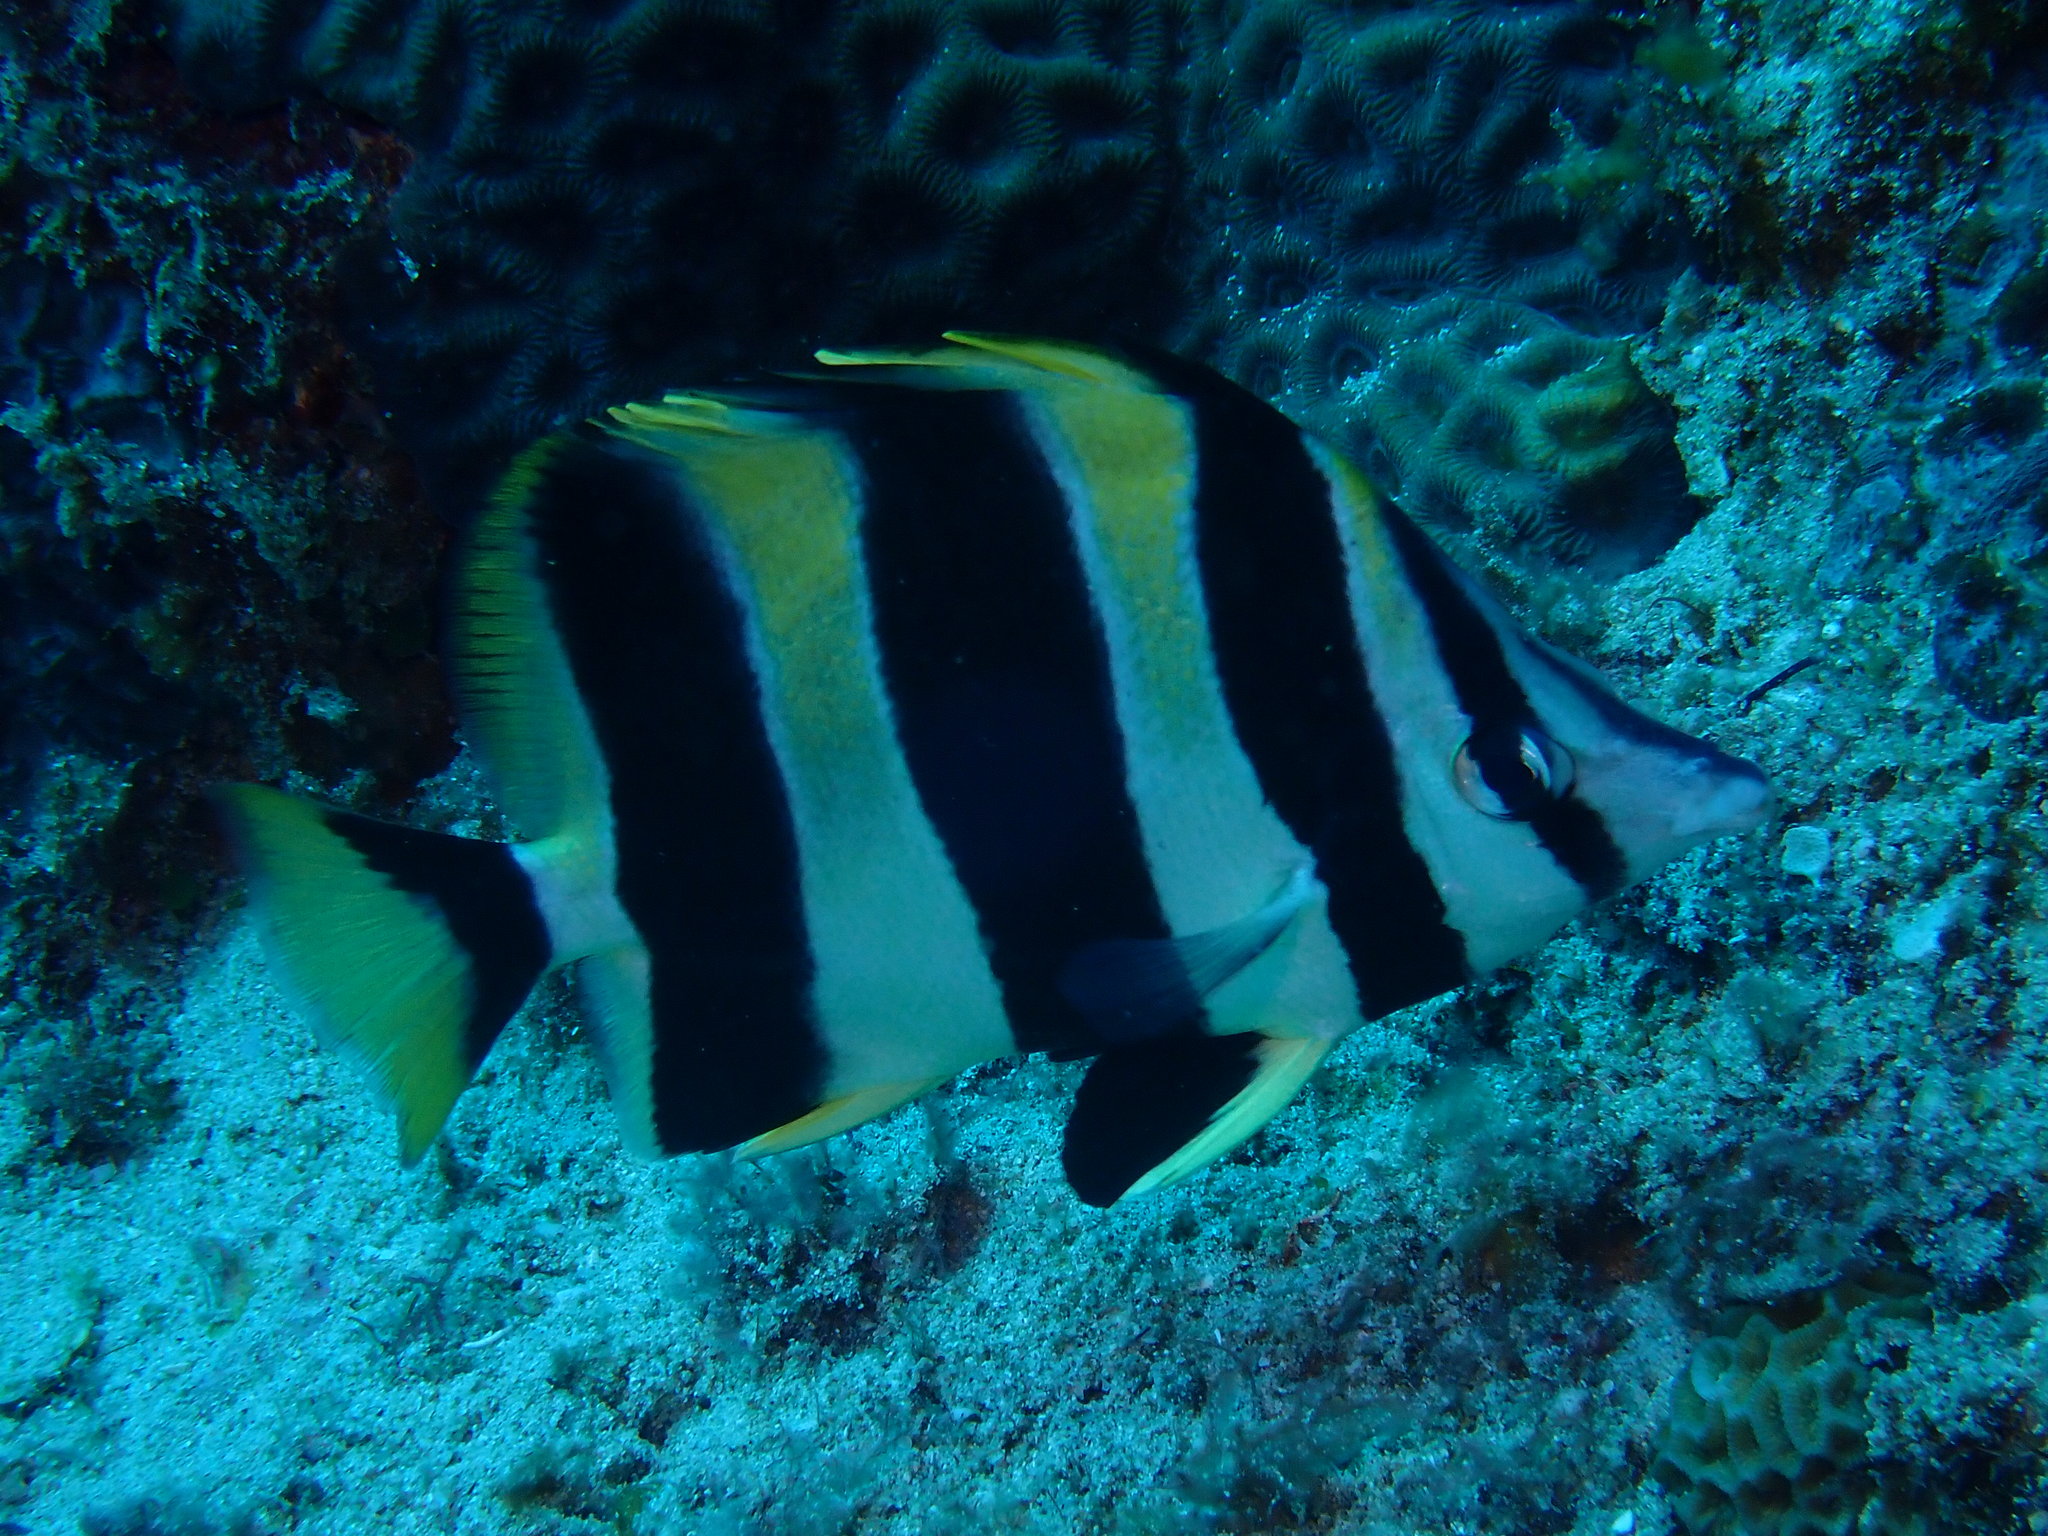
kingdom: Animalia
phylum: Chordata
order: Perciformes
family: Chaetodontidae
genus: Amphichaetodon
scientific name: Amphichaetodon howensis
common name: Broad-barred butterflyfish
